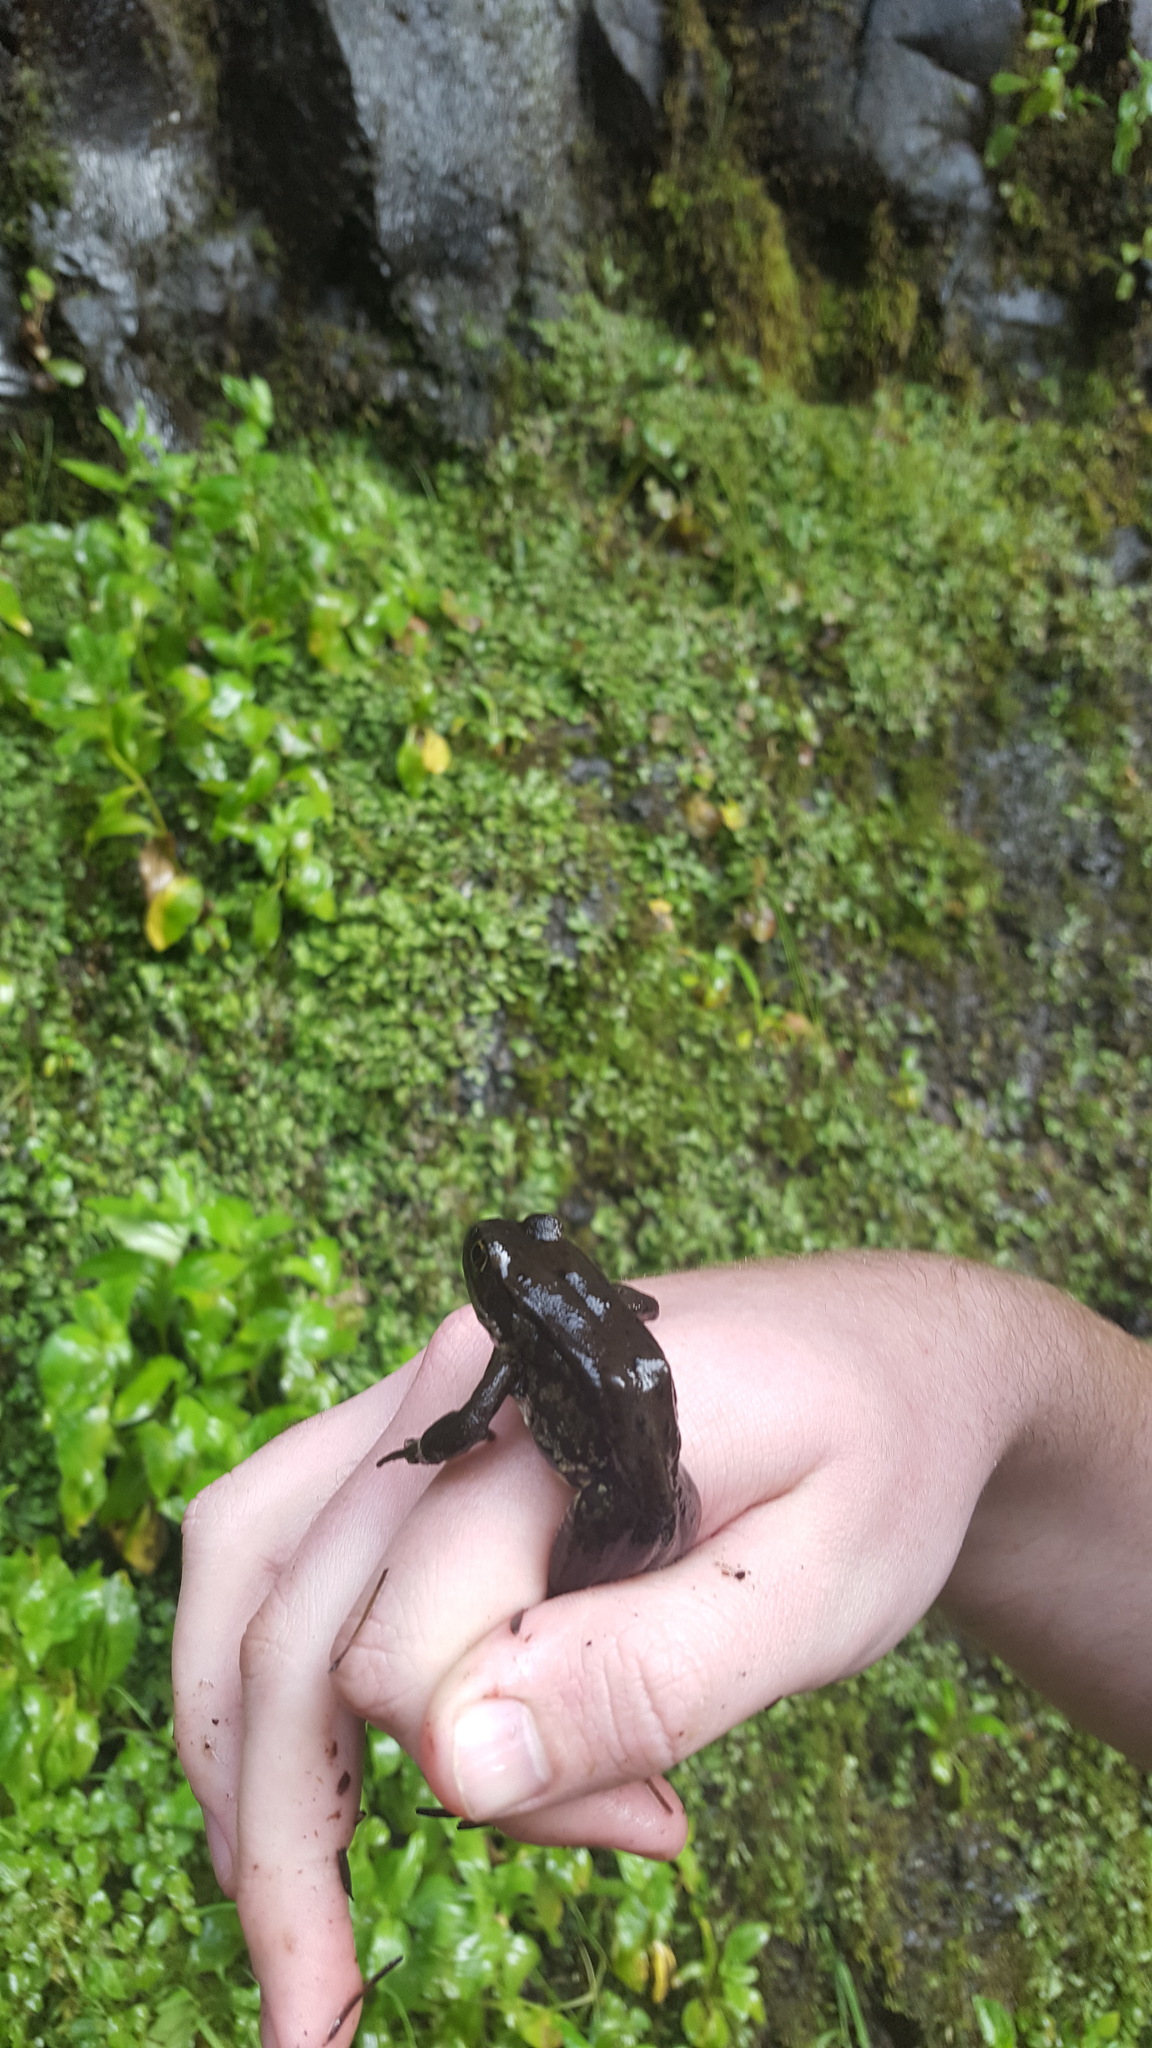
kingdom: Animalia
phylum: Chordata
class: Amphibia
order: Anura
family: Ranidae
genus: Rana
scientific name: Rana aurora
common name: Red-legged frog
